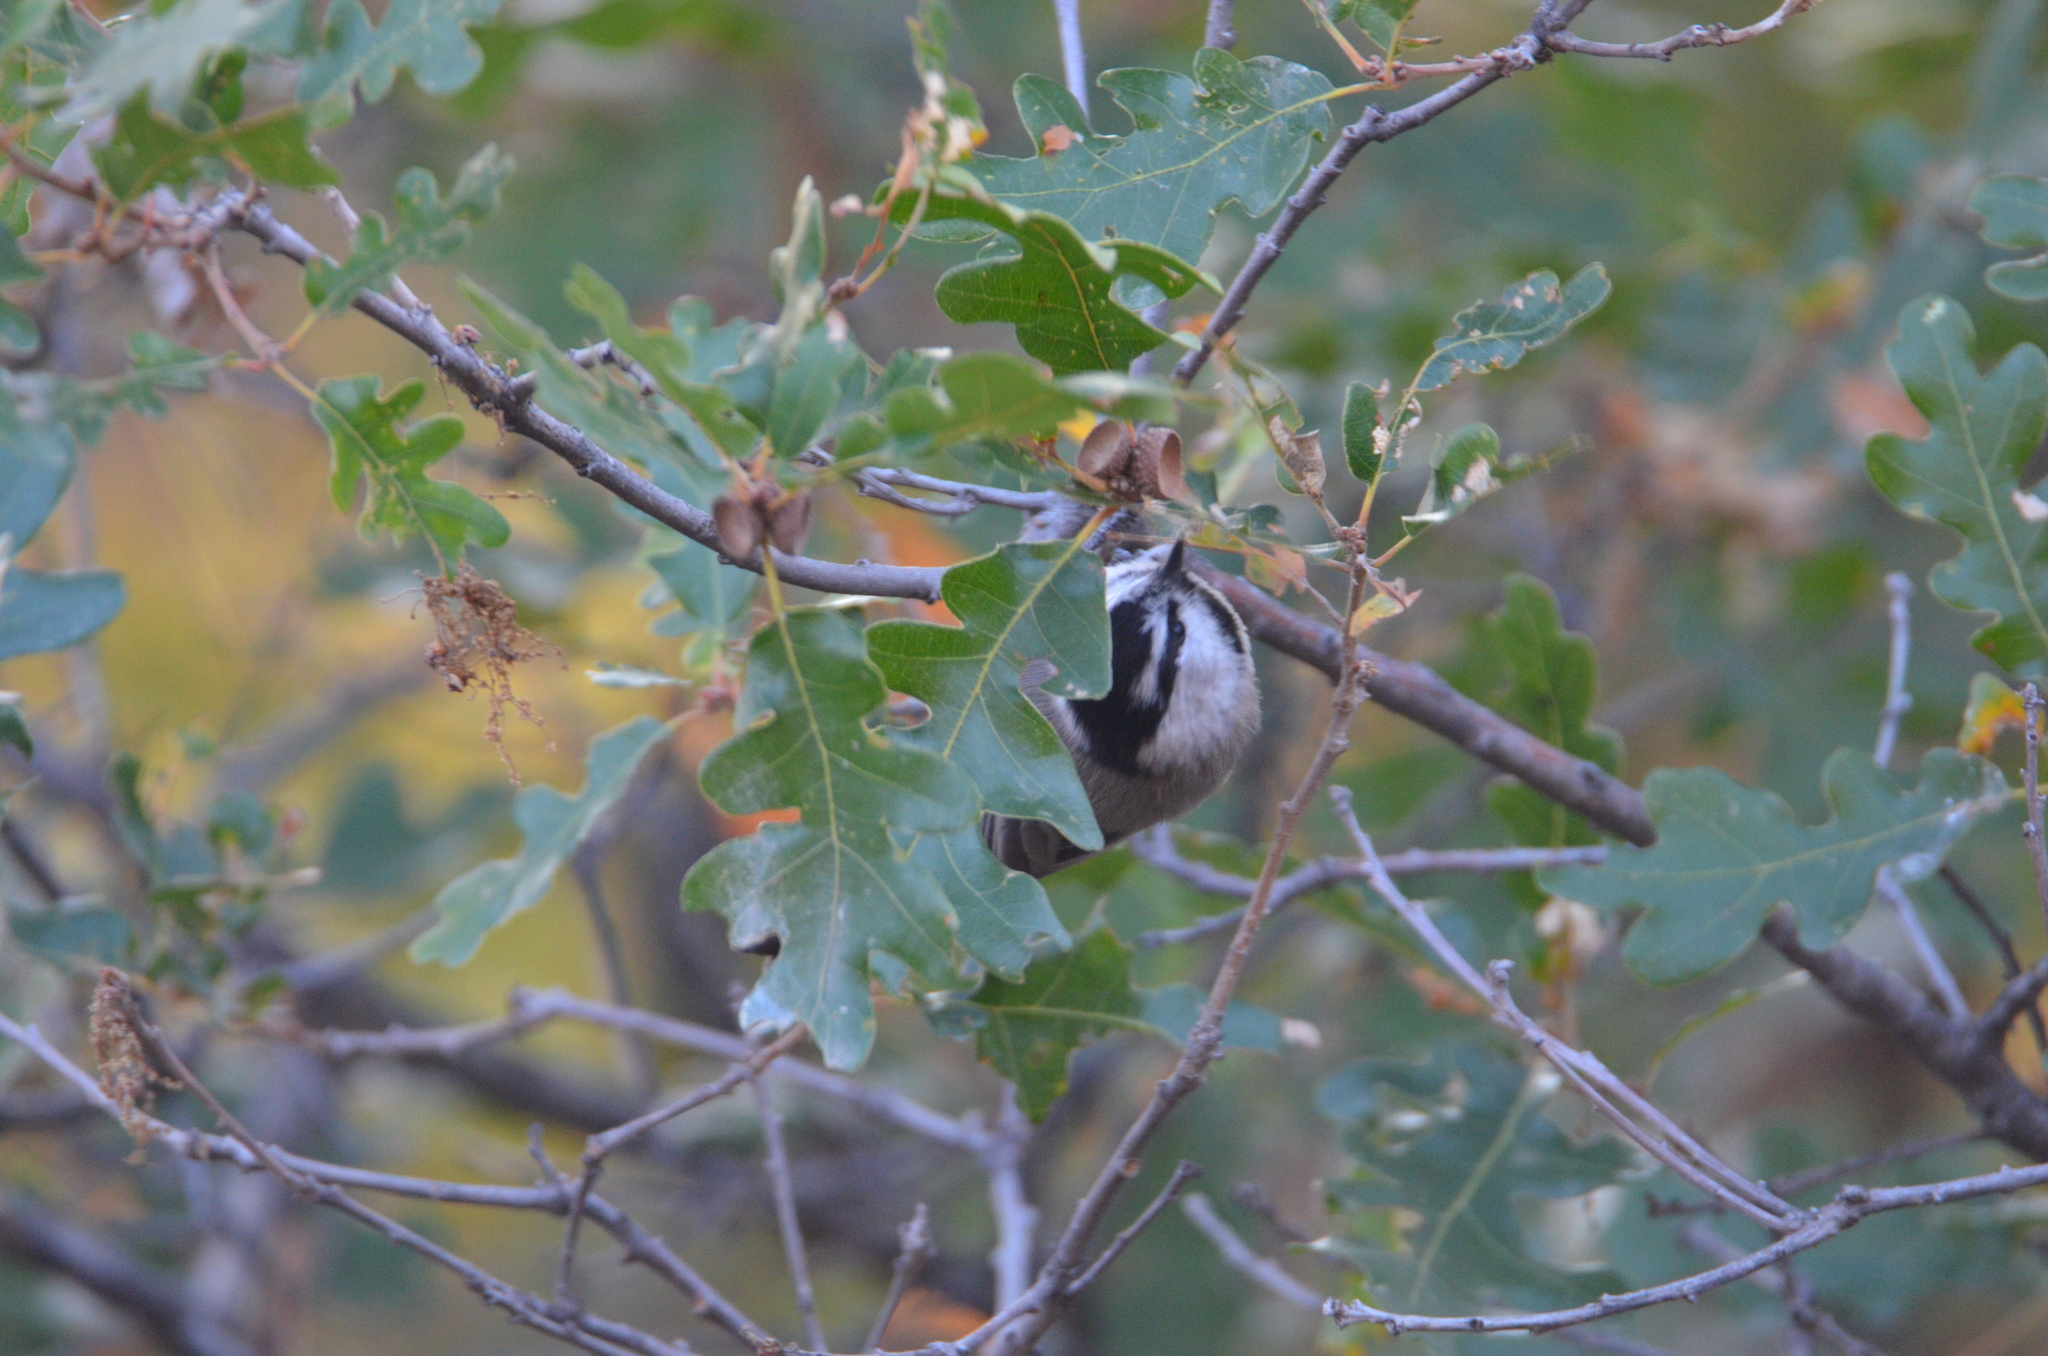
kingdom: Animalia
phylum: Chordata
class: Aves
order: Passeriformes
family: Paridae
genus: Poecile
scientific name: Poecile gambeli
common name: Mountain chickadee
